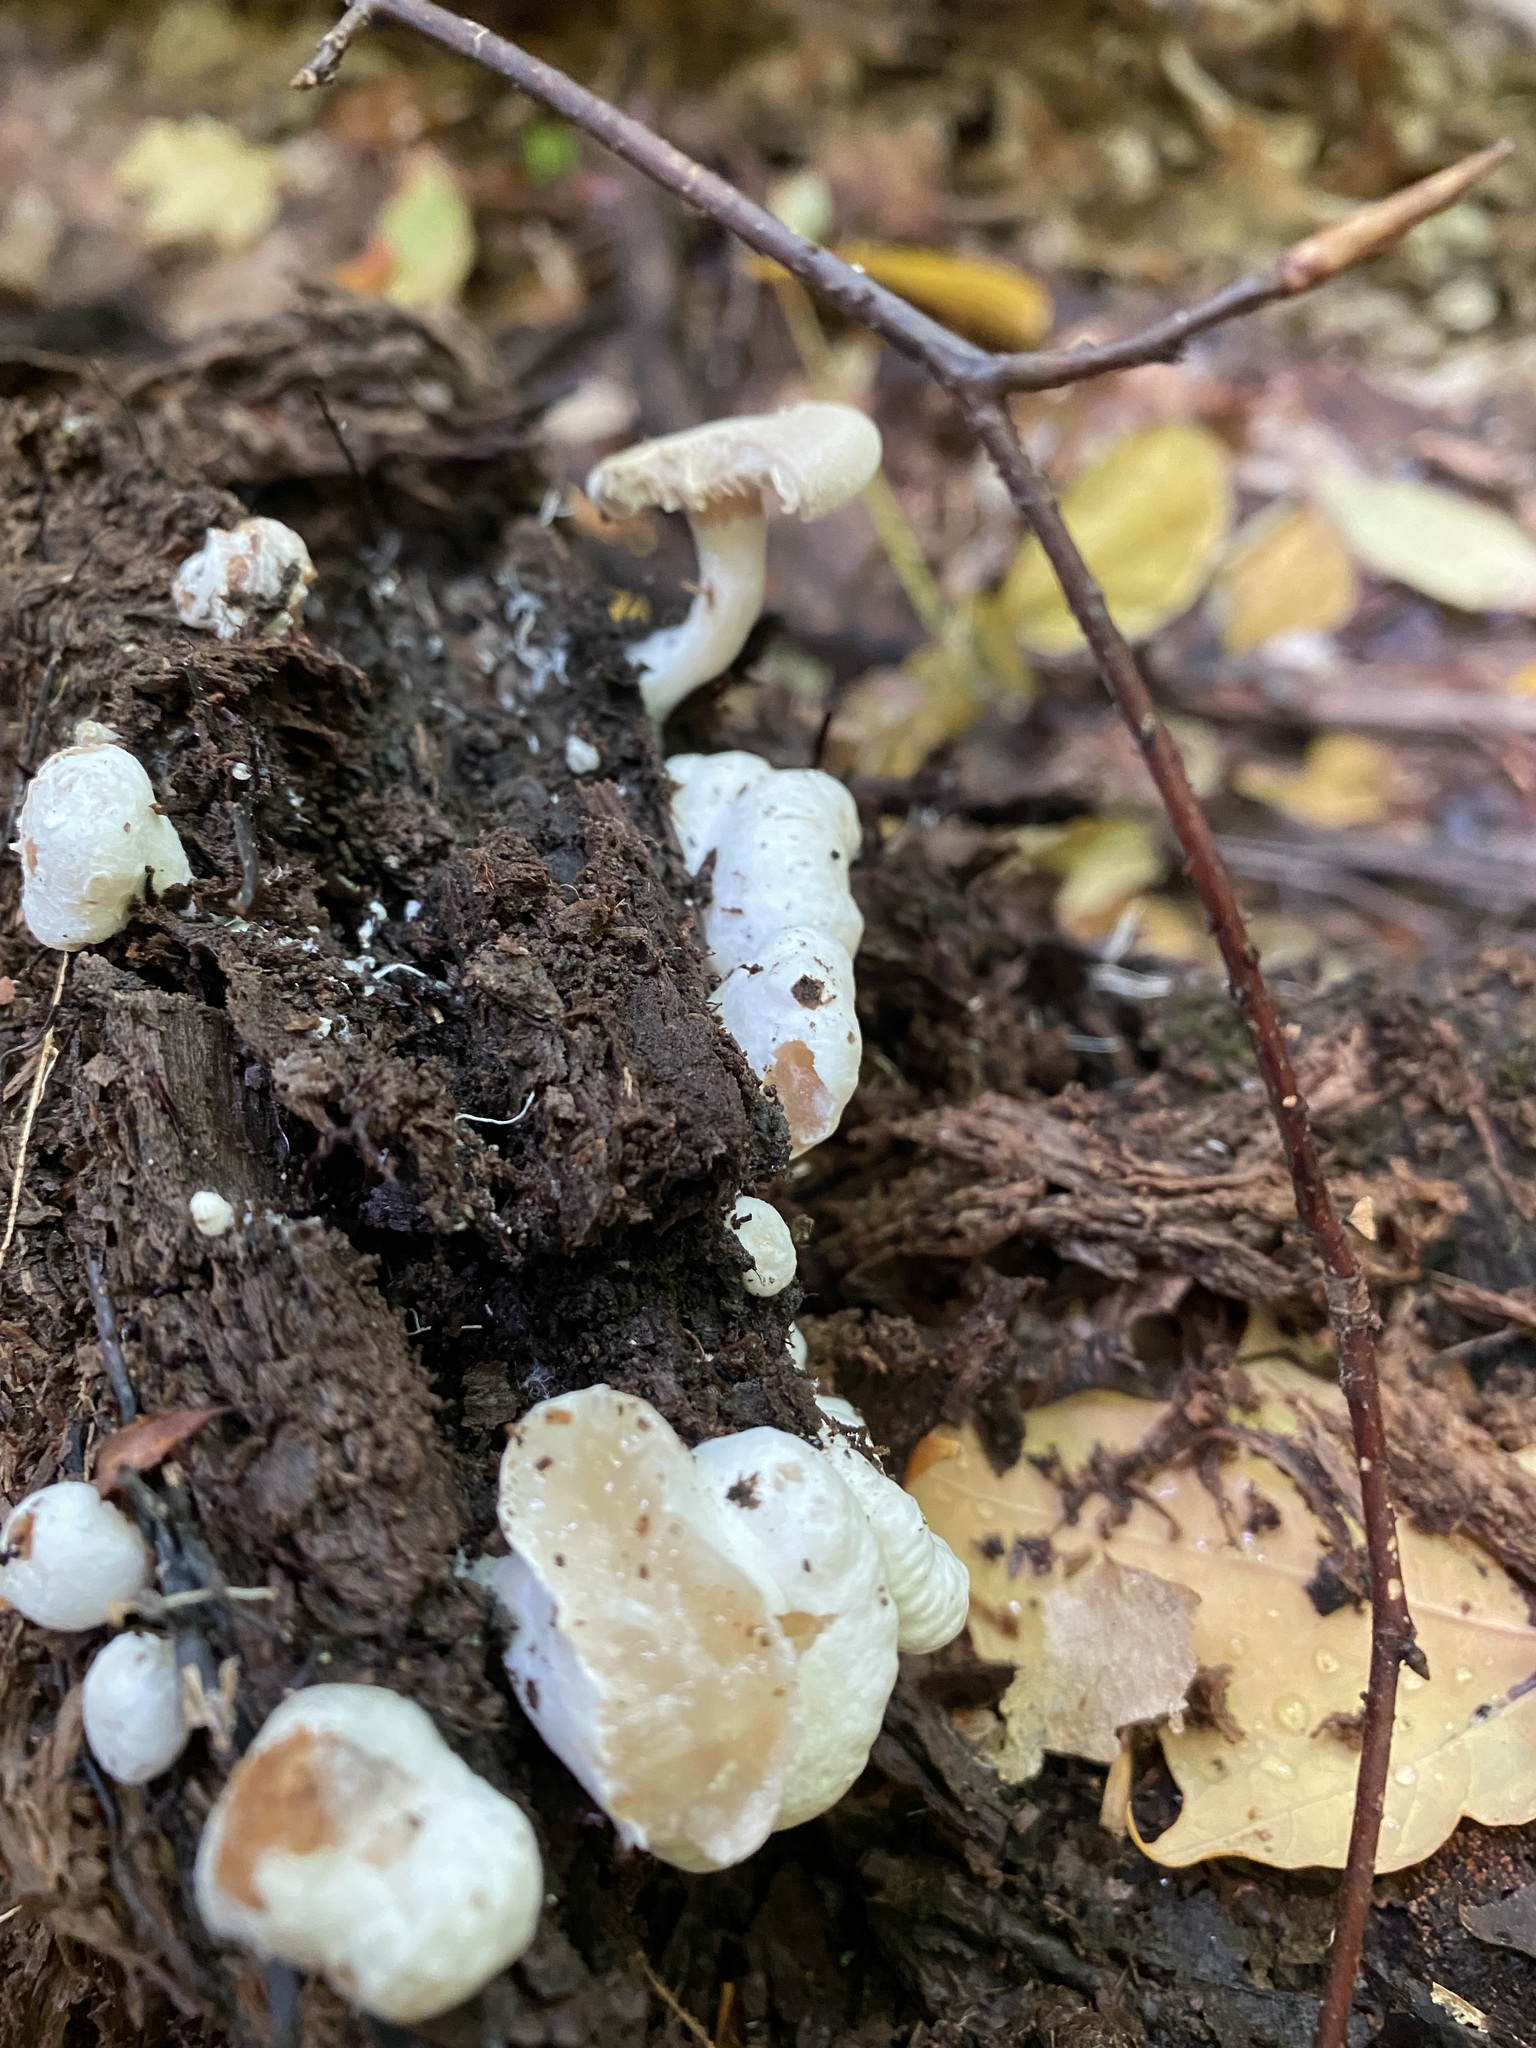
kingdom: Fungi
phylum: Basidiomycota
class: Agaricomycetes
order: Agaricales
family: Entolomataceae
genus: Entoloma
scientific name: Entoloma abortivum
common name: Aborted entoloma
